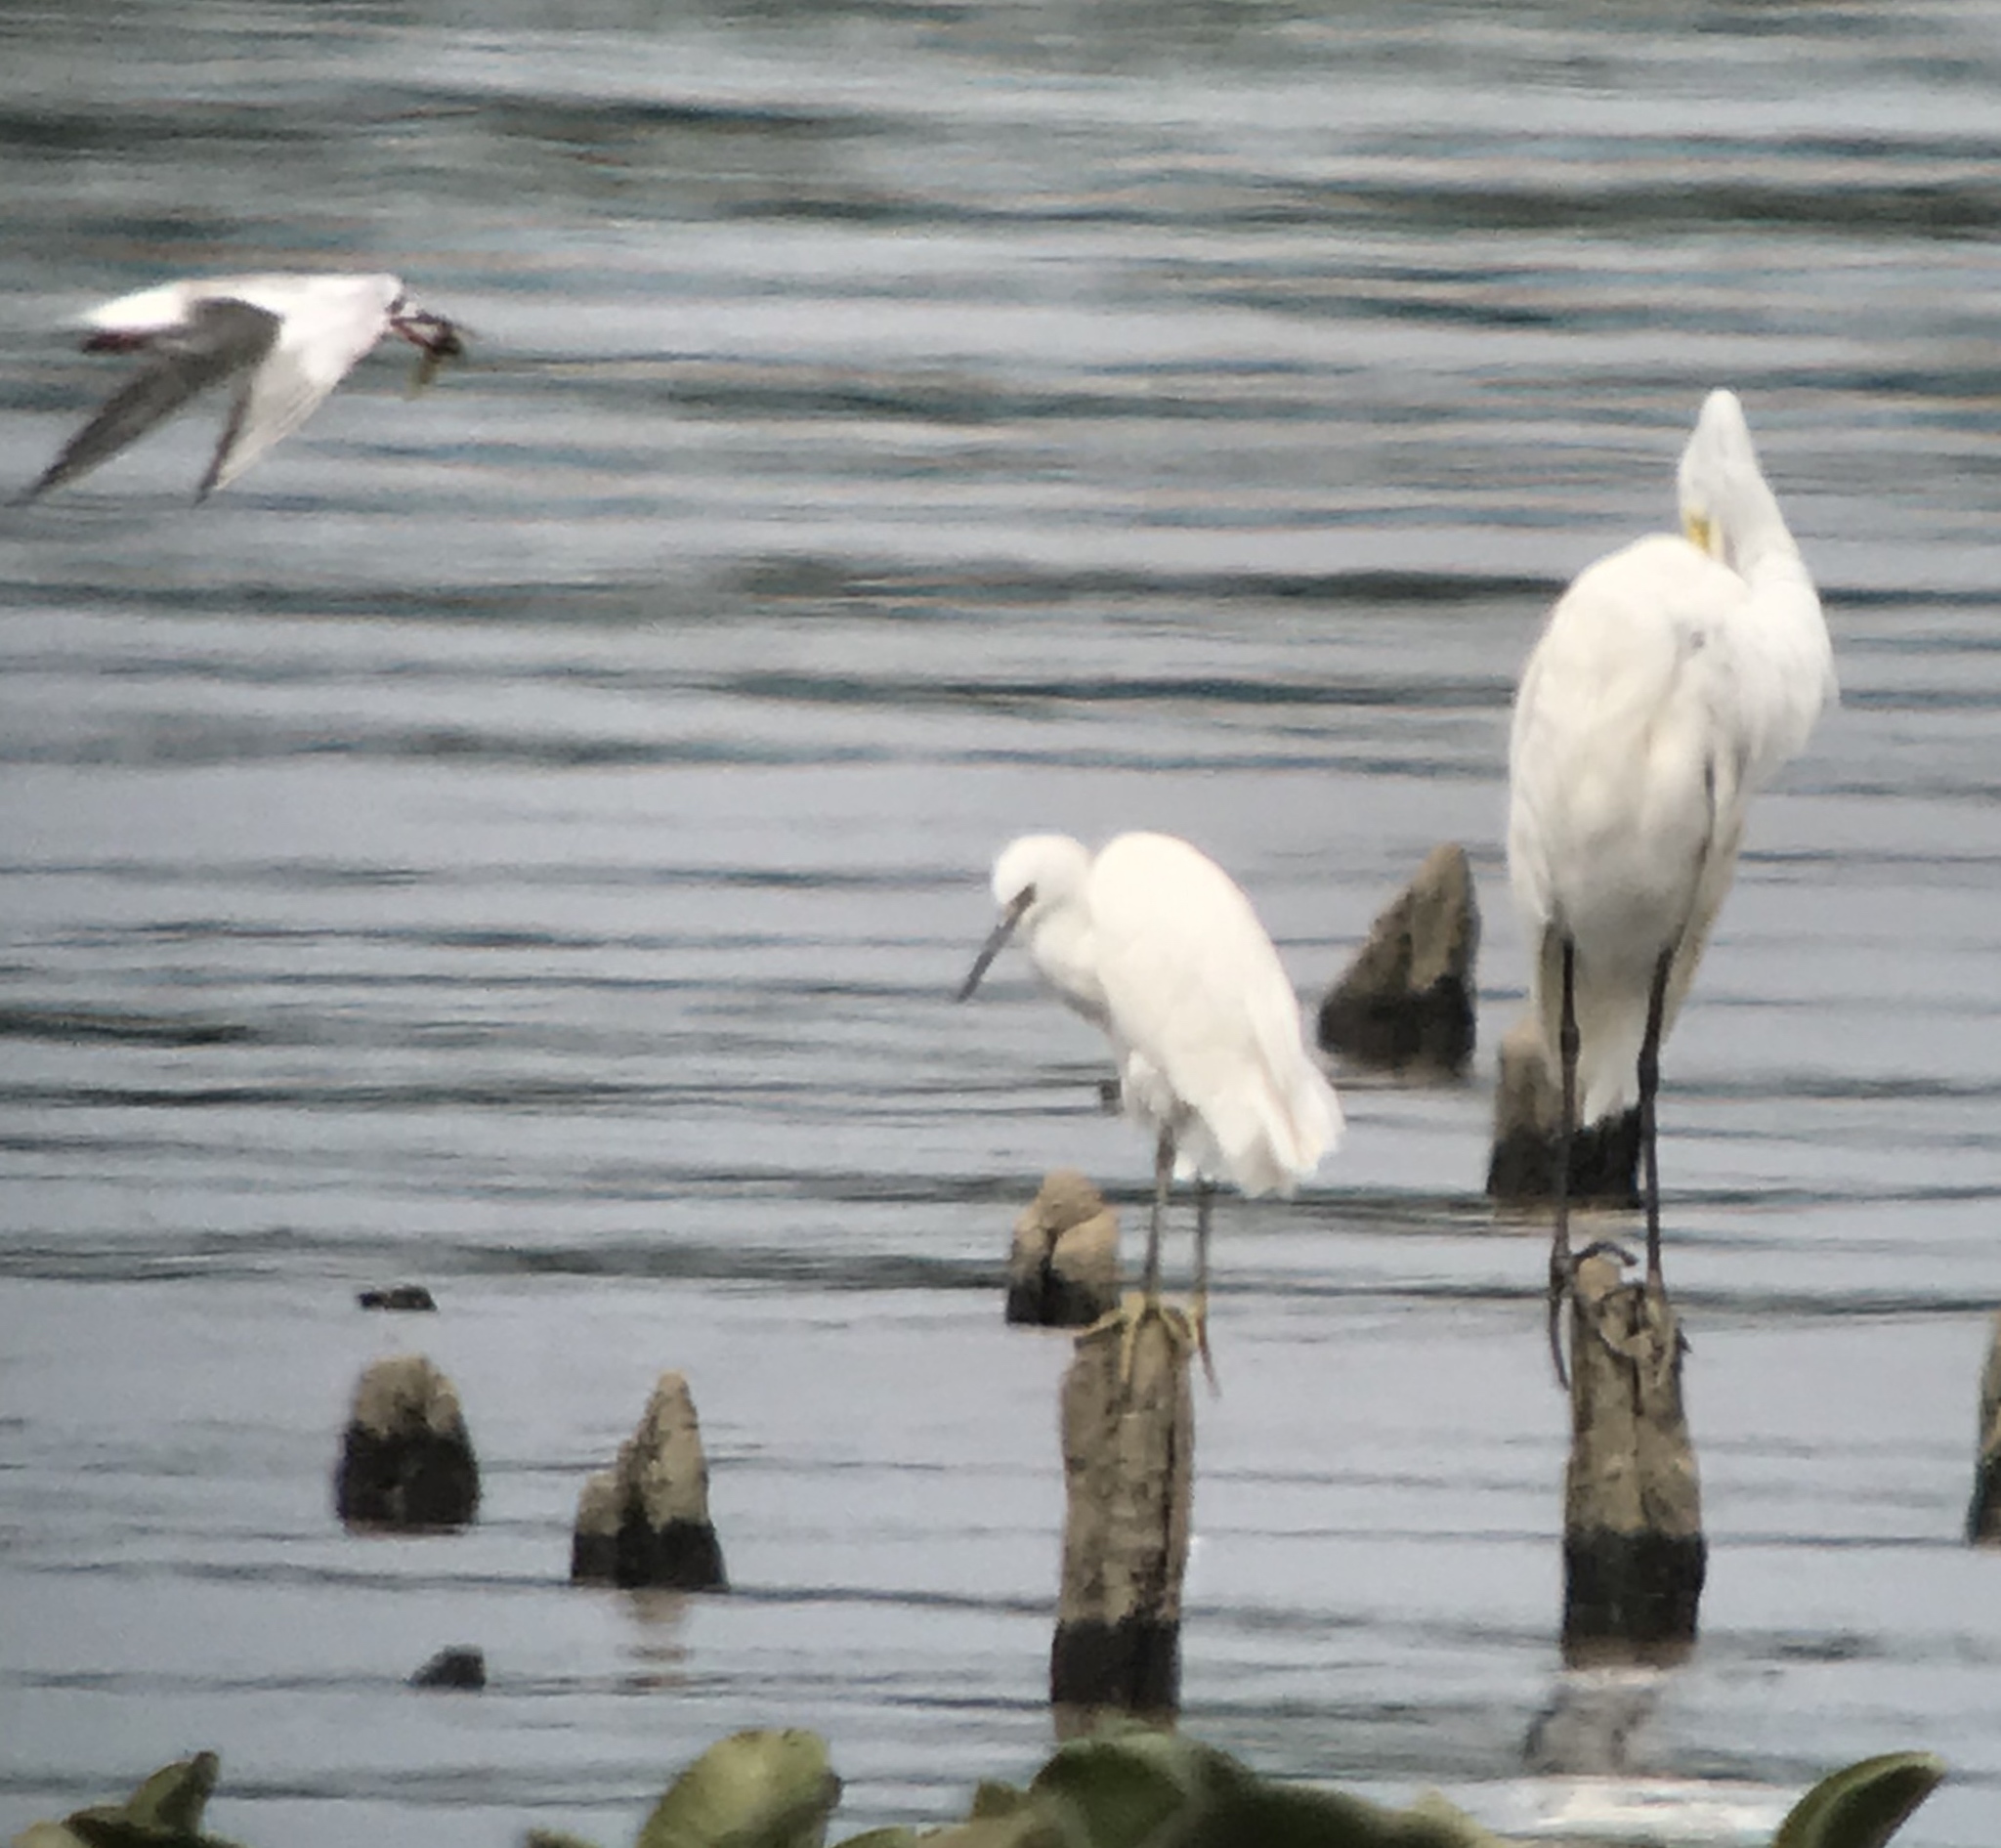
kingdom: Animalia
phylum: Chordata
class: Aves
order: Pelecaniformes
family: Ardeidae
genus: Egretta
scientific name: Egretta thula
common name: Snowy egret
